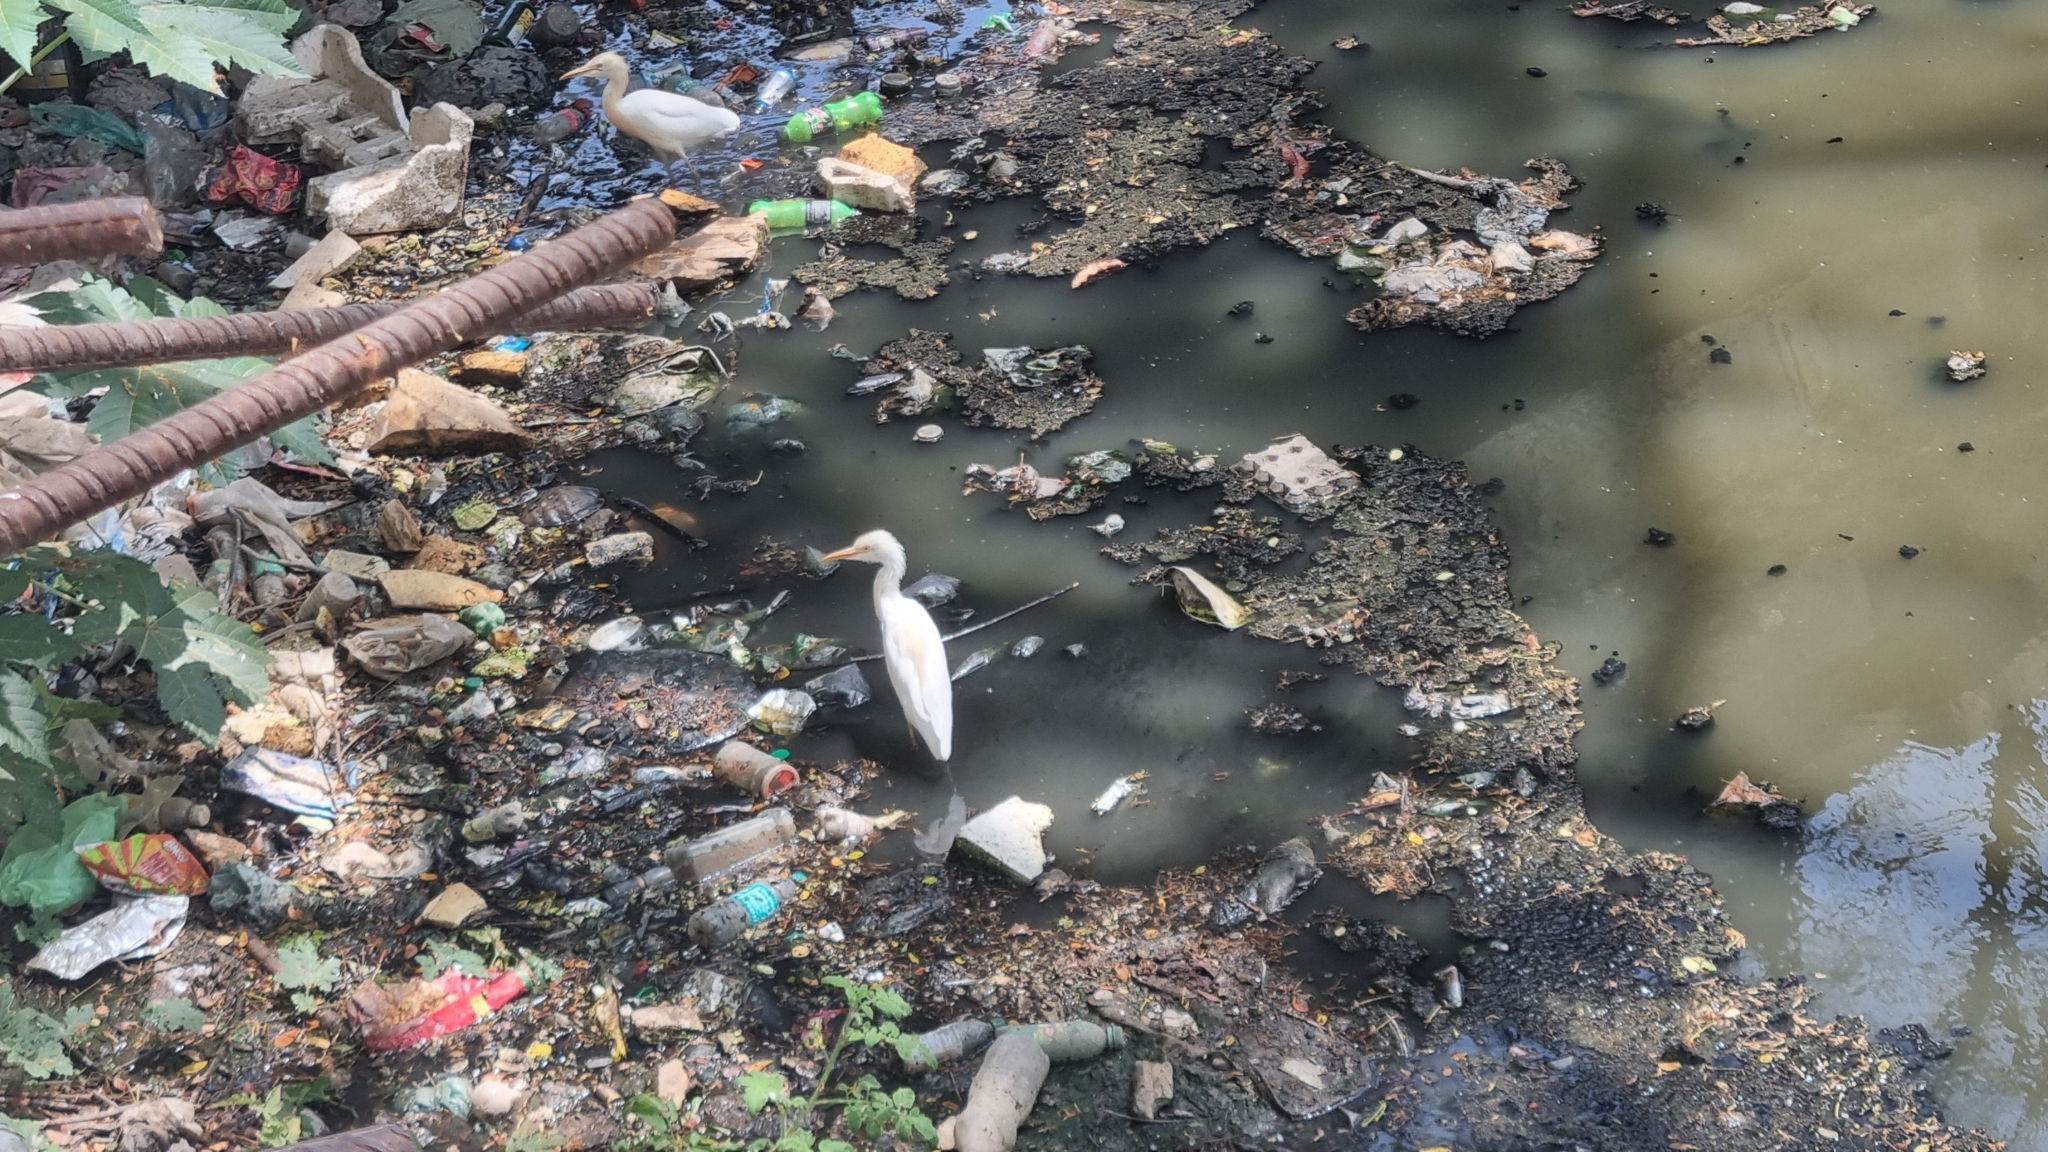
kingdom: Animalia
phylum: Chordata
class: Aves
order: Pelecaniformes
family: Ardeidae
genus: Bubulcus
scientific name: Bubulcus coromandus
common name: Eastern cattle egret
